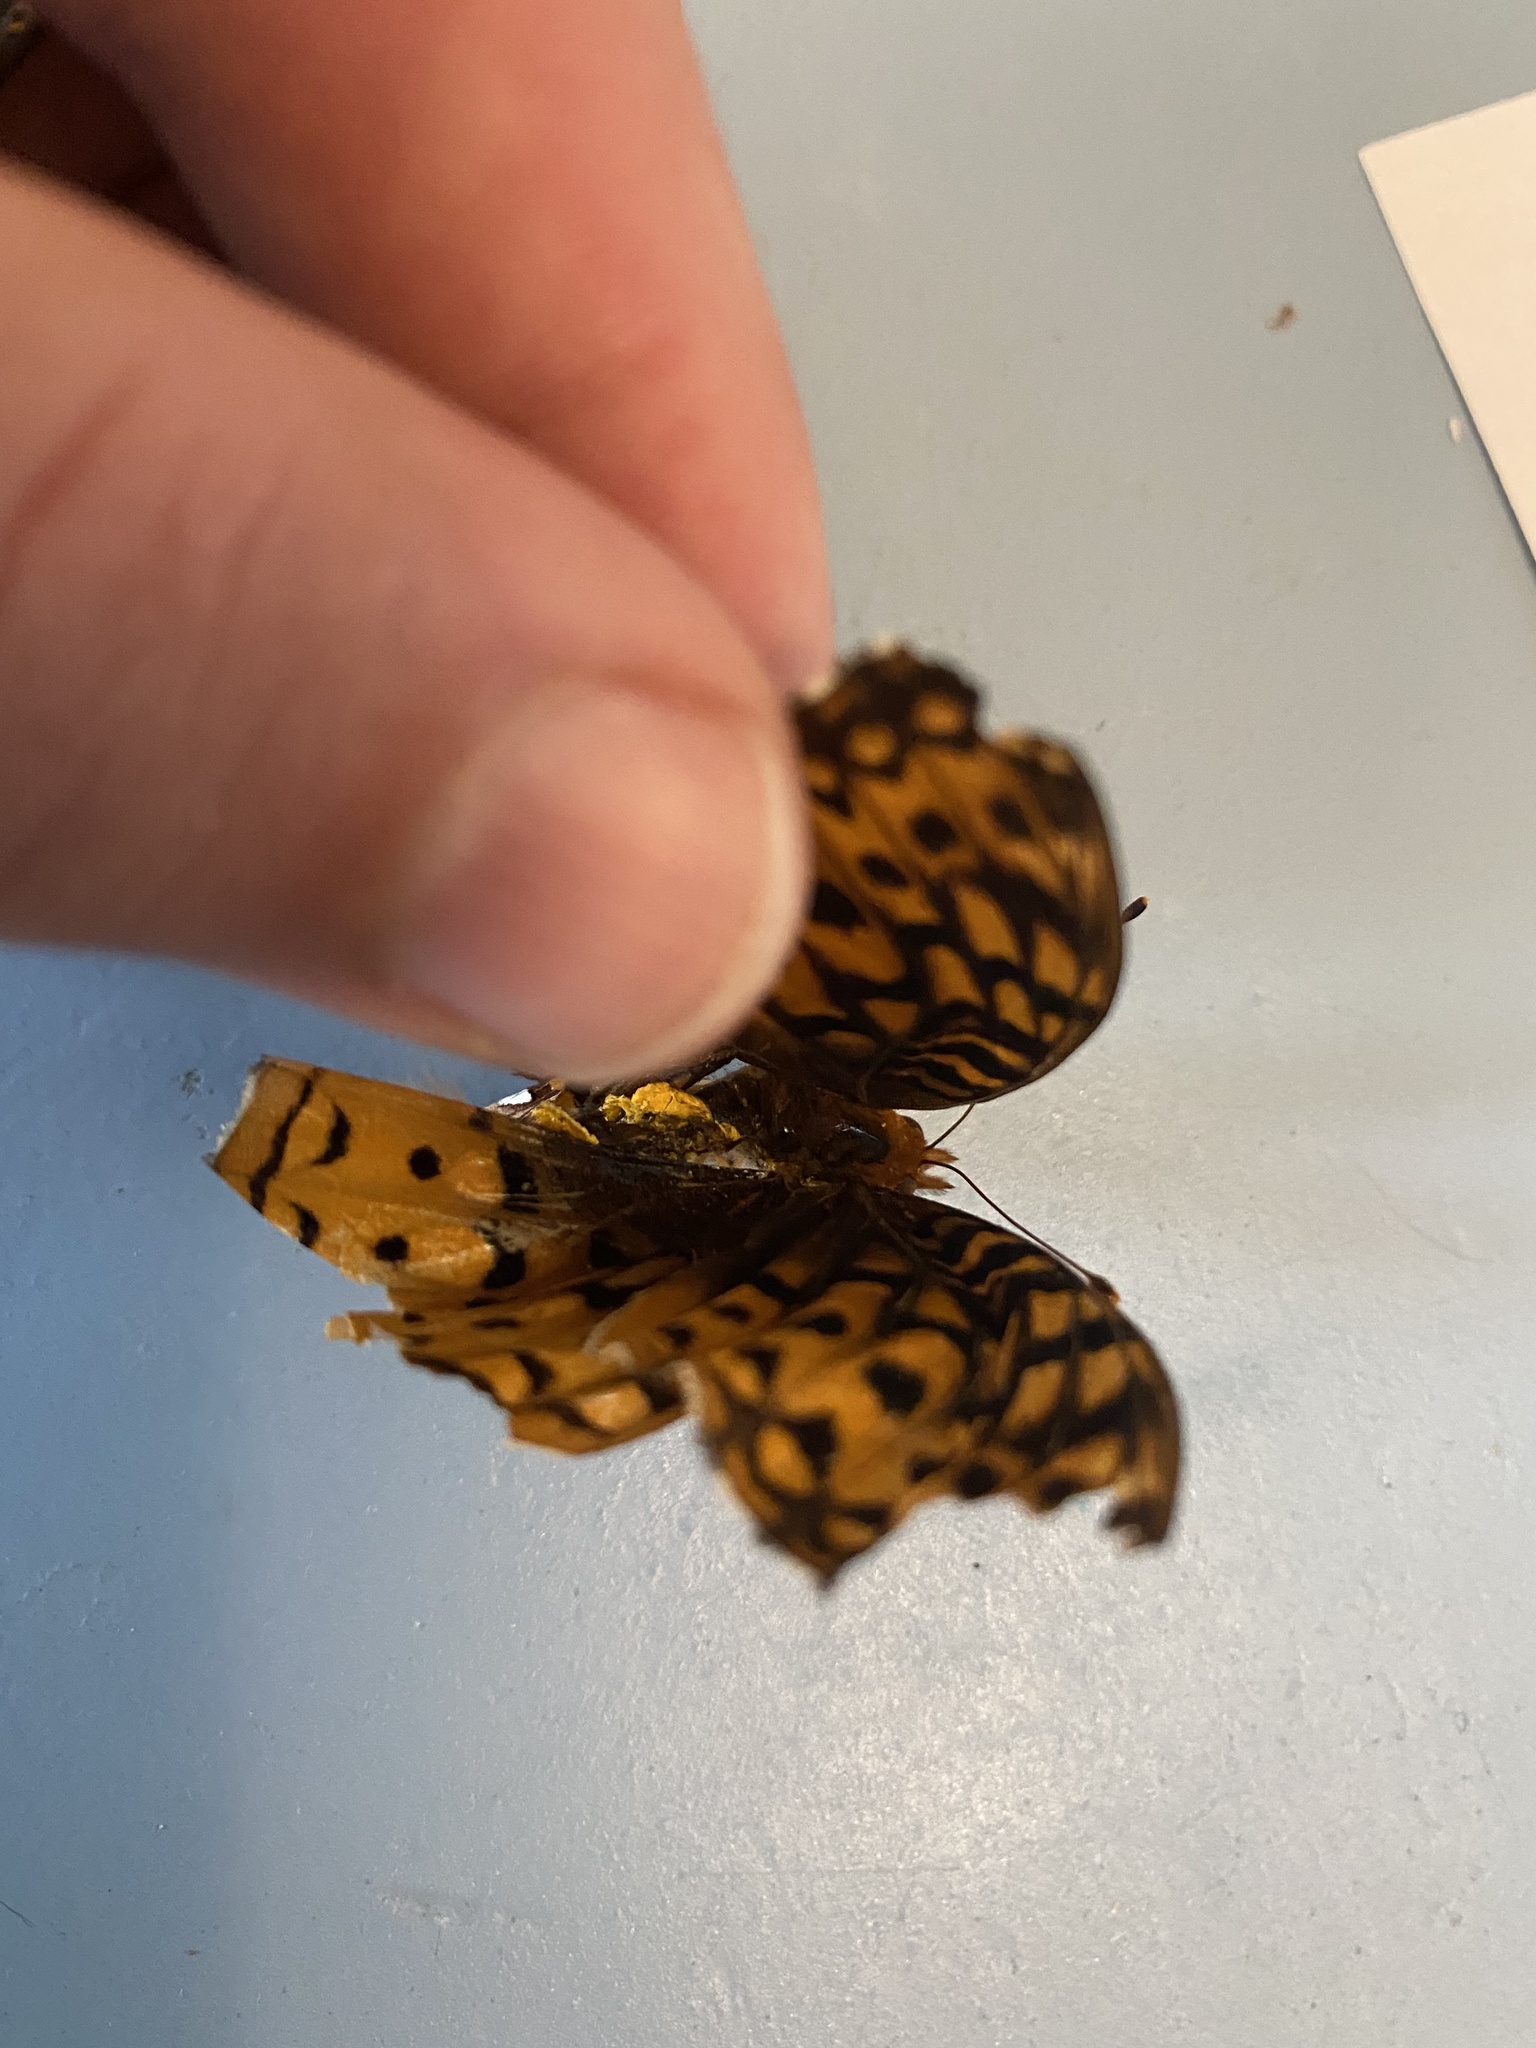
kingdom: Animalia
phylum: Arthropoda
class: Insecta
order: Lepidoptera
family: Nymphalidae
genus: Speyeria
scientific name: Speyeria cybele
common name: Great spangled fritillary
